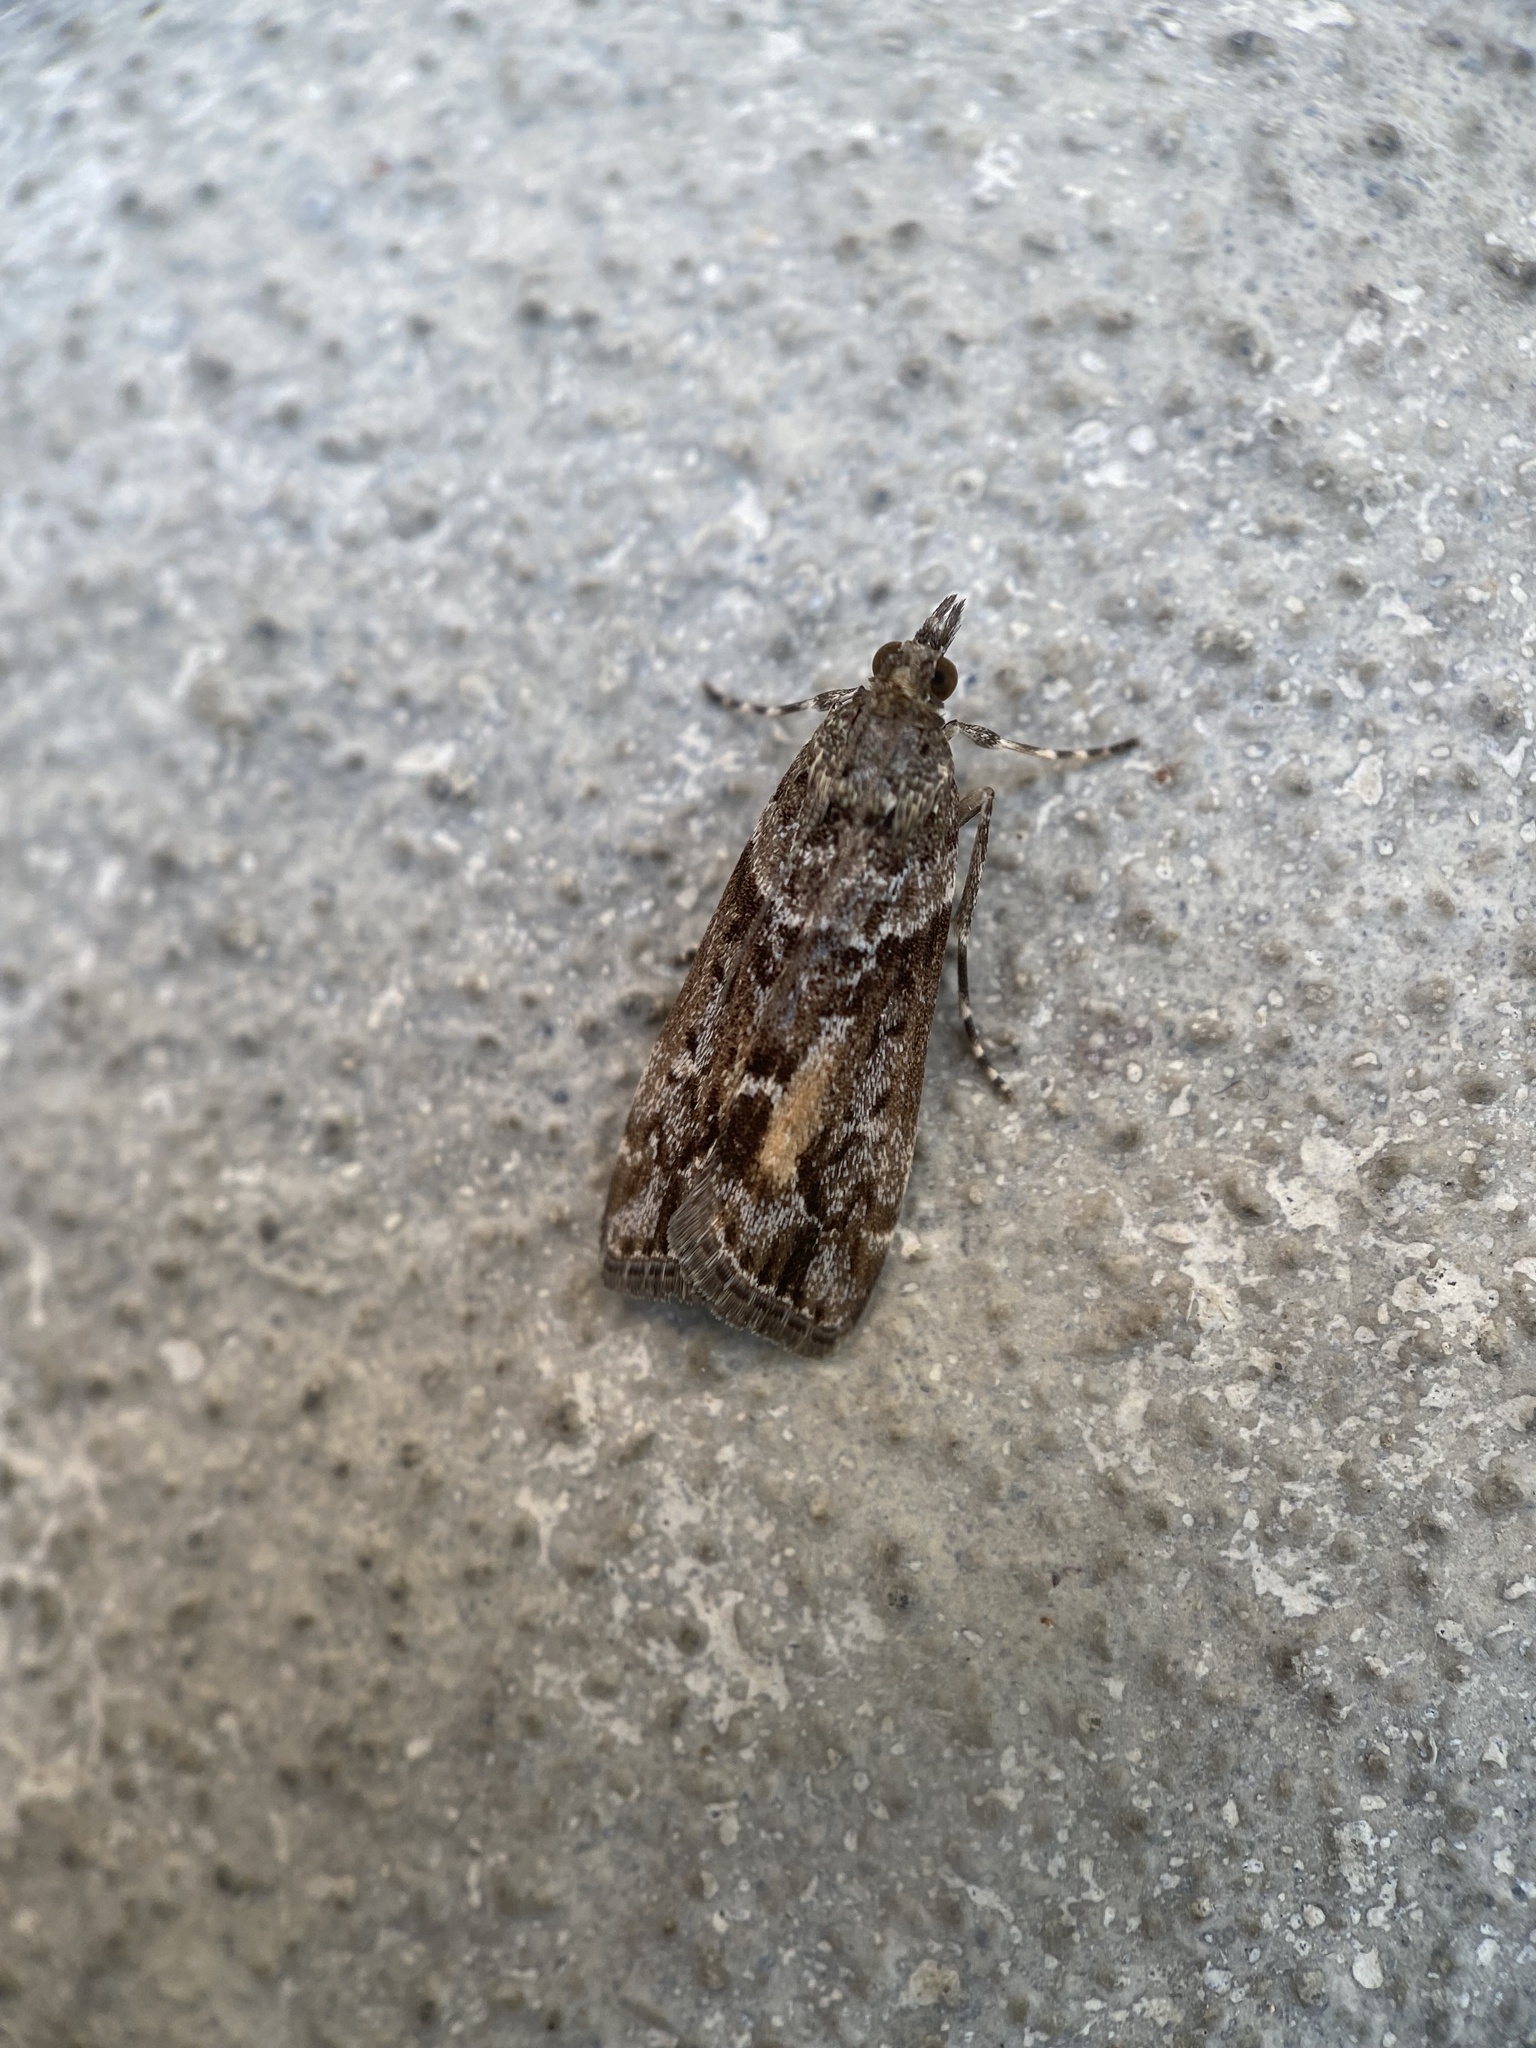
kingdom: Animalia
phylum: Arthropoda
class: Insecta
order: Lepidoptera
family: Crambidae
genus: Eudonia
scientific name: Eudonia submarginalis
